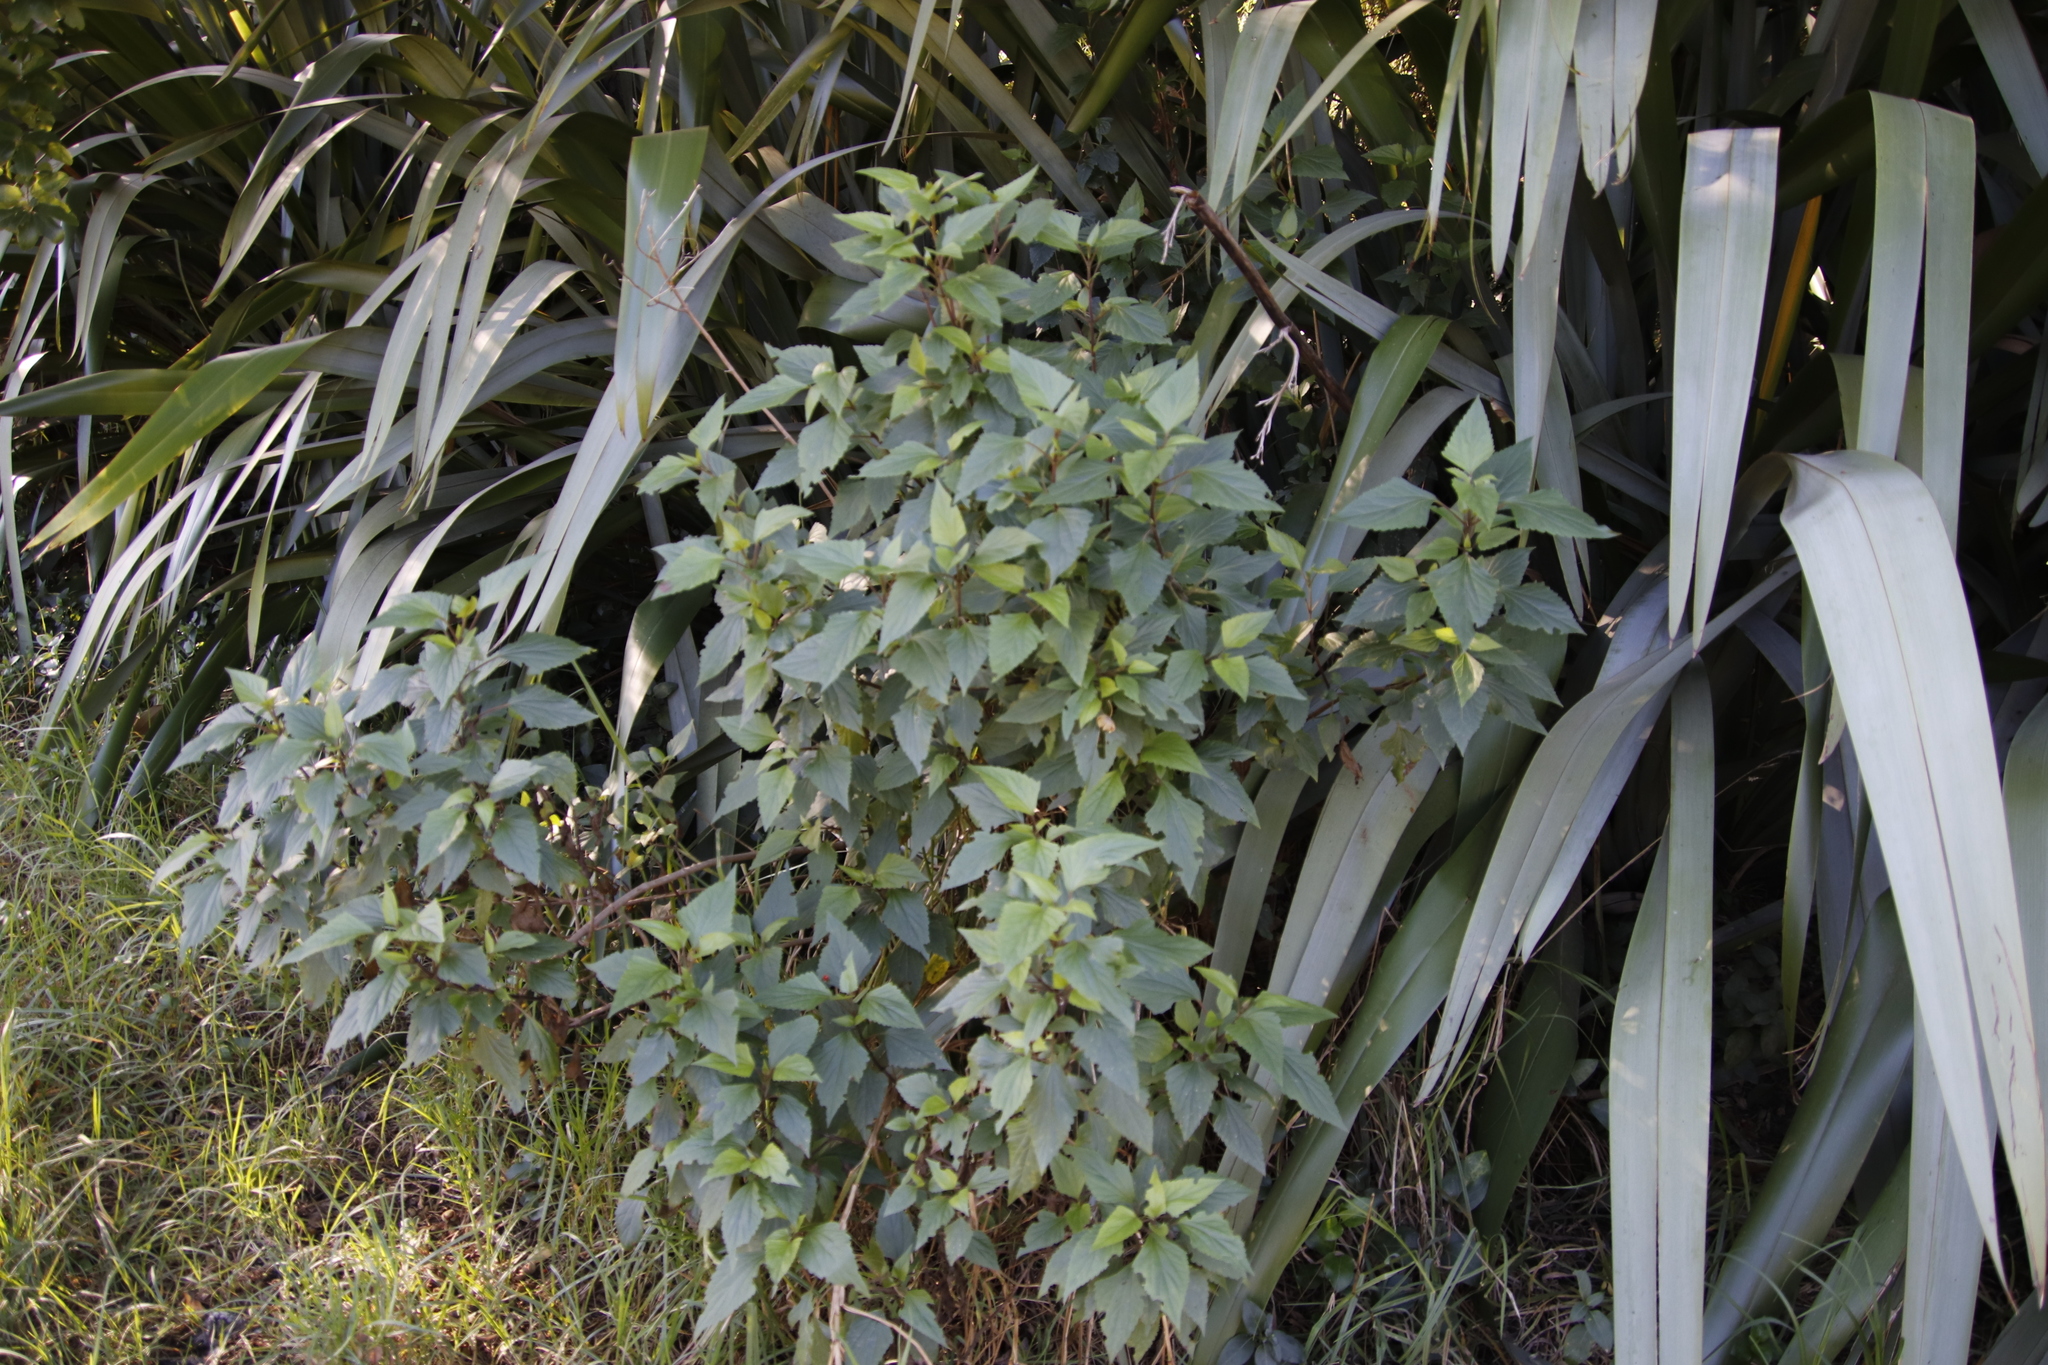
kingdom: Plantae
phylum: Tracheophyta
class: Magnoliopsida
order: Asterales
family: Asteraceae
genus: Ageratina
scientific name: Ageratina adenophora
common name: Sticky snakeroot
